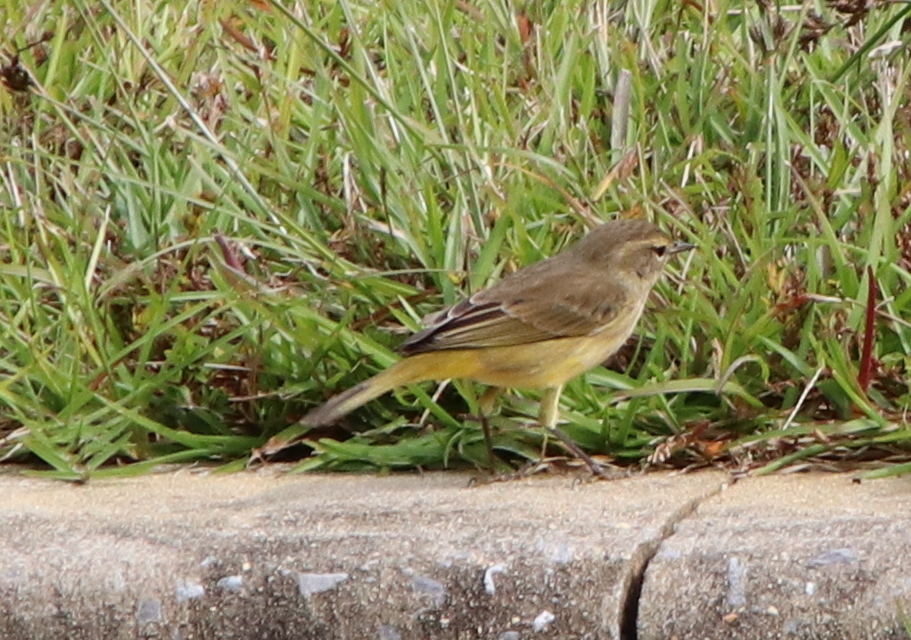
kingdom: Animalia
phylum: Chordata
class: Aves
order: Passeriformes
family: Parulidae
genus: Setophaga
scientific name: Setophaga palmarum
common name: Palm warbler
